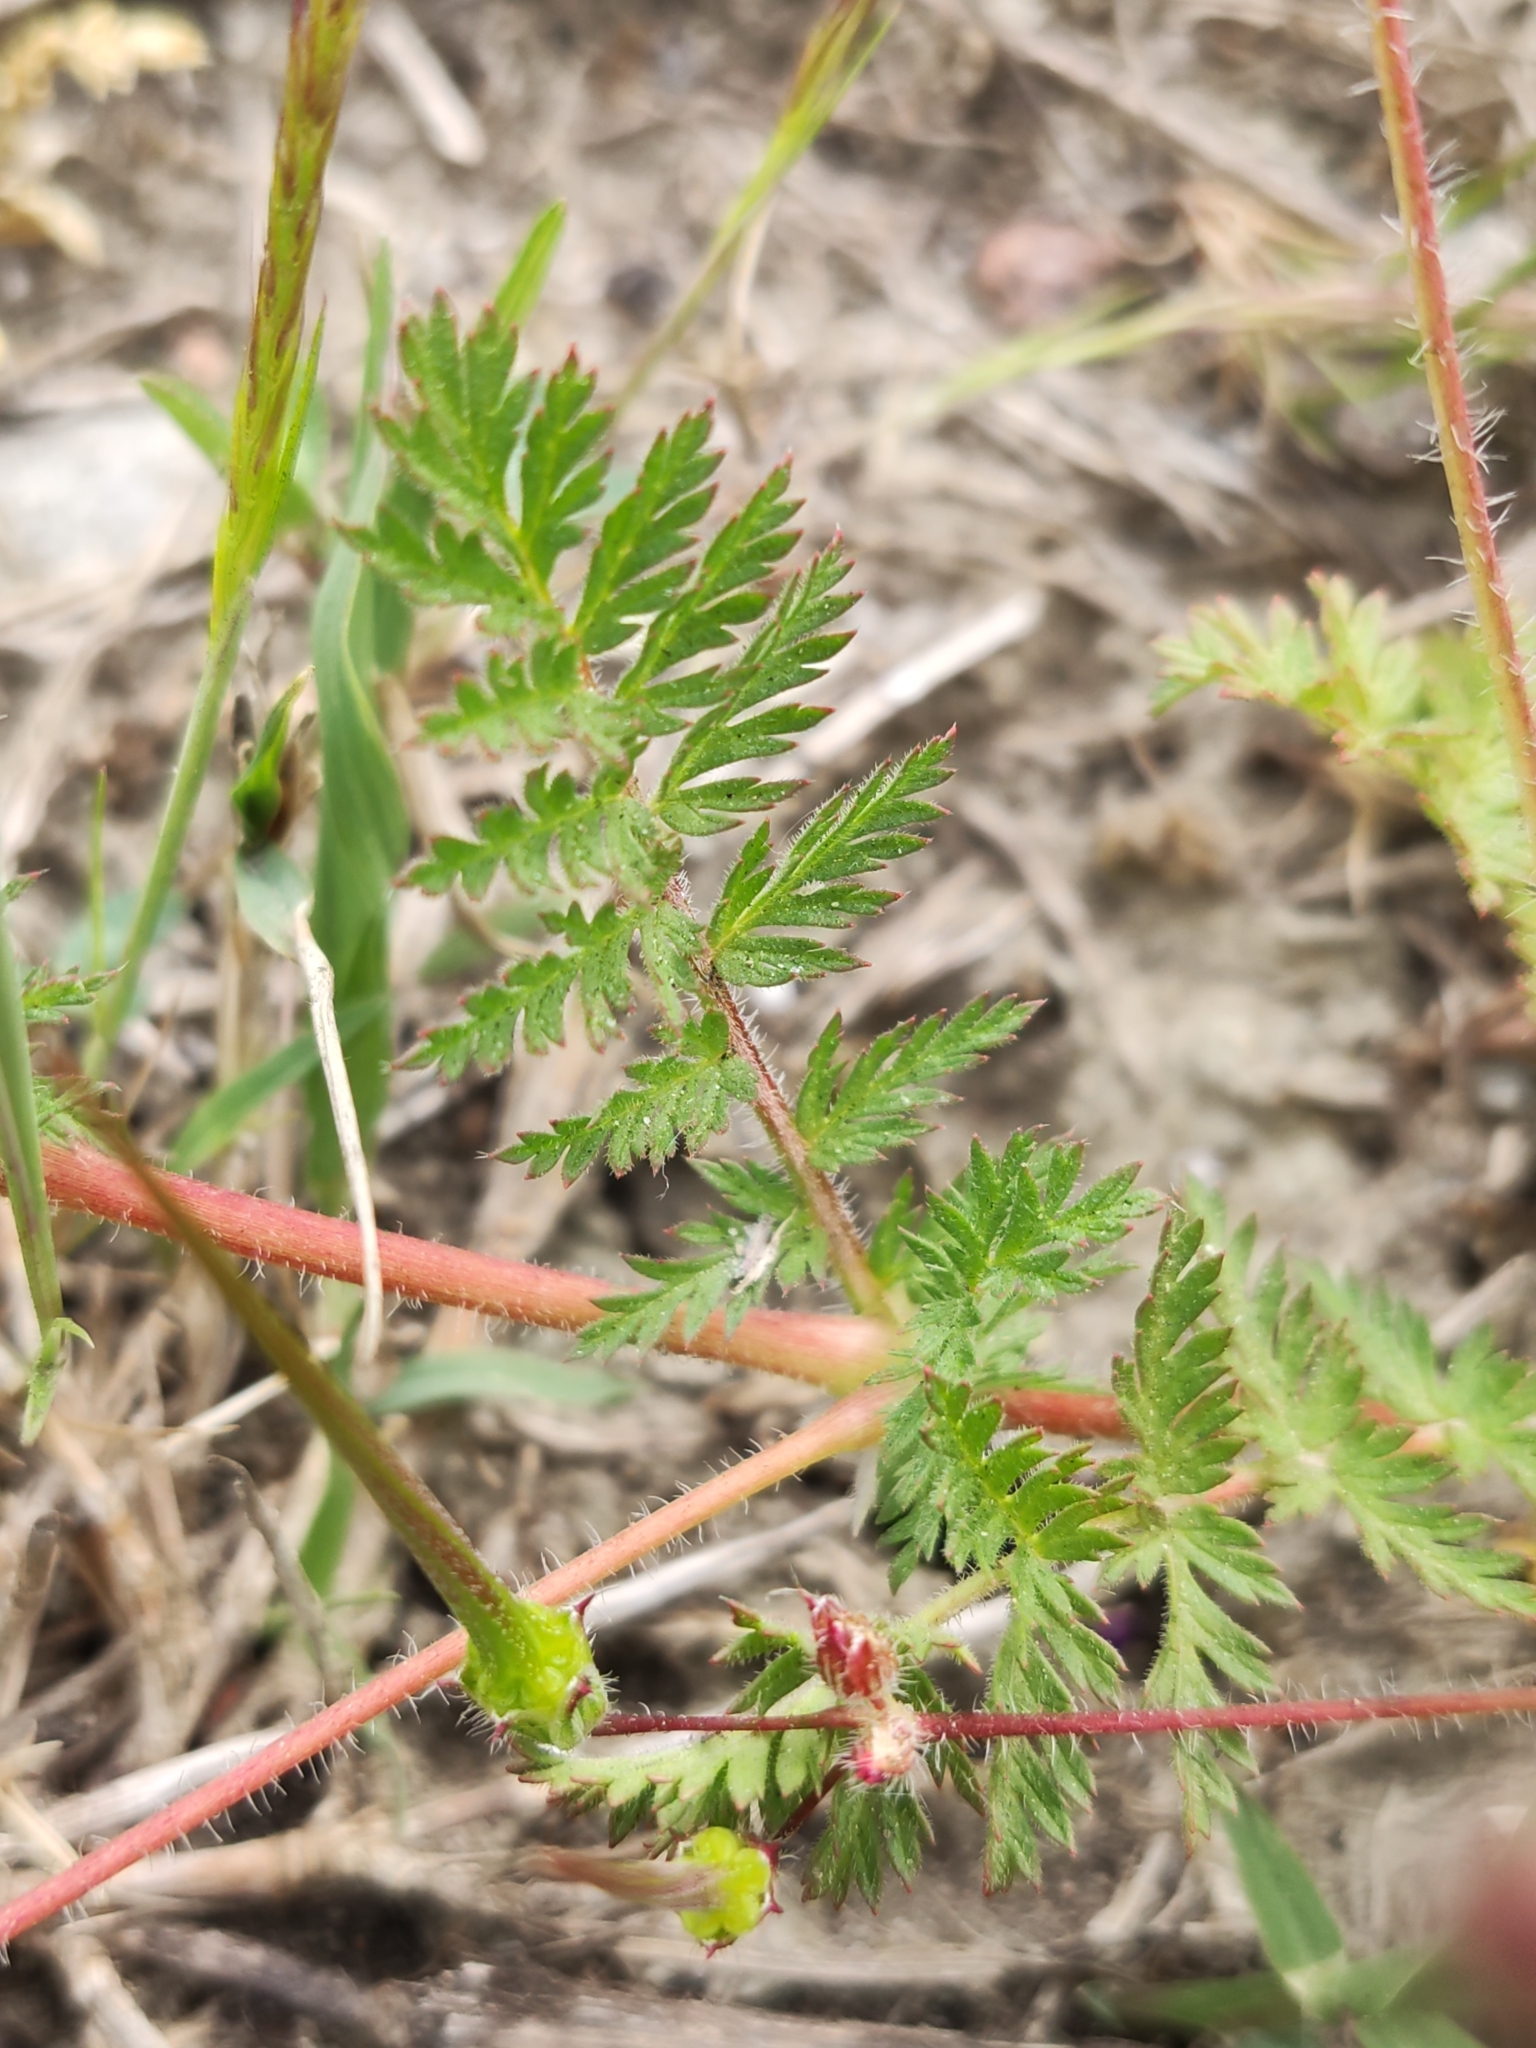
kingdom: Plantae
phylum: Tracheophyta
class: Magnoliopsida
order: Geraniales
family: Geraniaceae
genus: Erodium
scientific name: Erodium cicutarium
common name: Common stork's-bill
